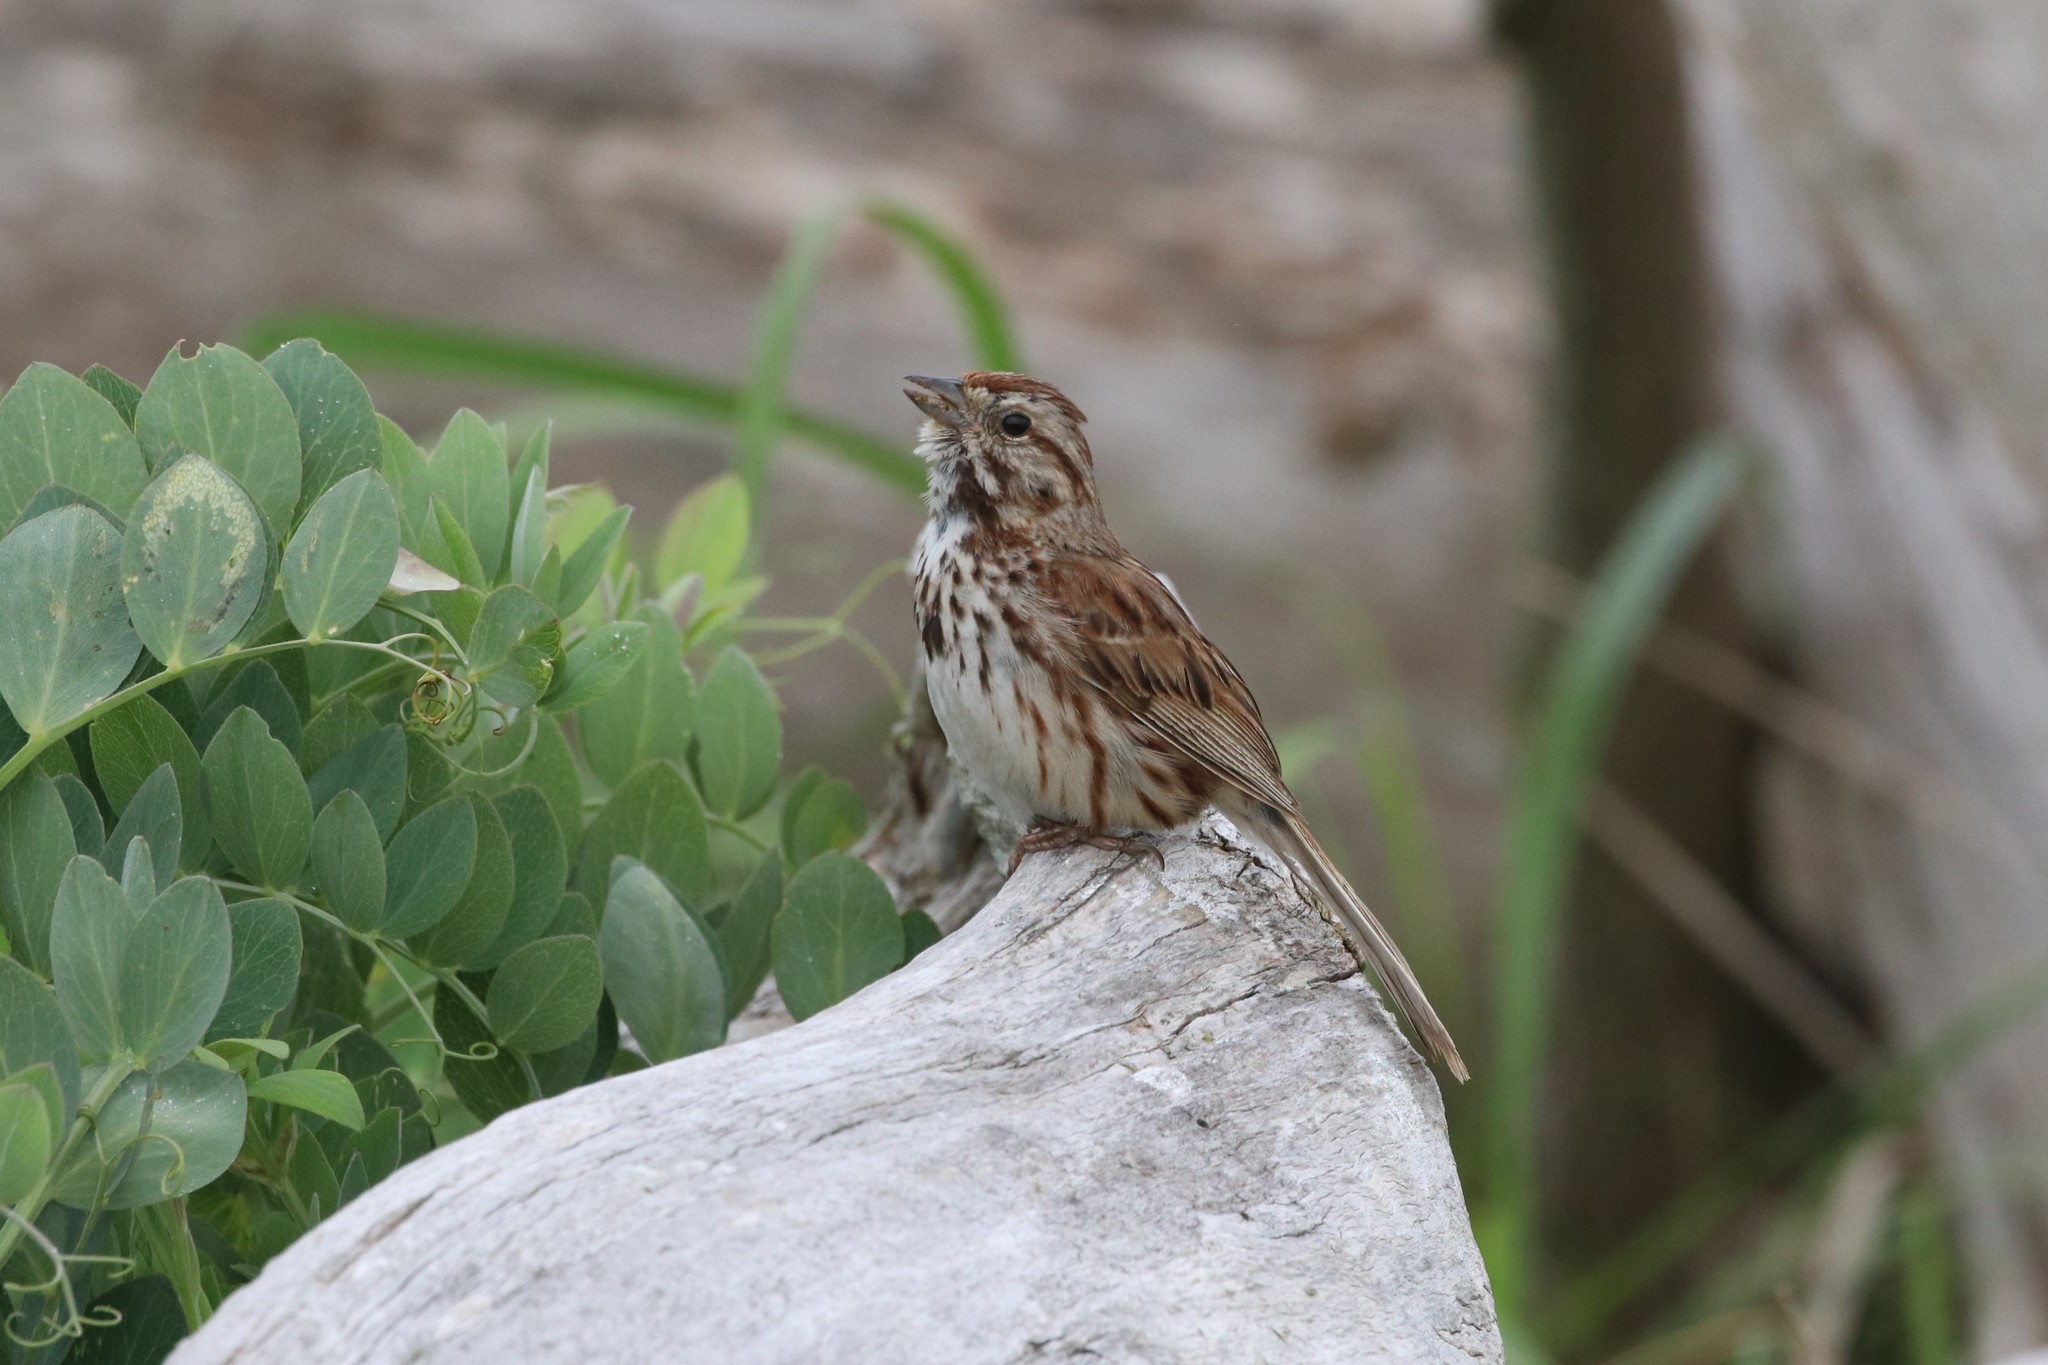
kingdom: Animalia
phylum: Chordata
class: Aves
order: Passeriformes
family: Passerellidae
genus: Melospiza
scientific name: Melospiza melodia
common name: Song sparrow
